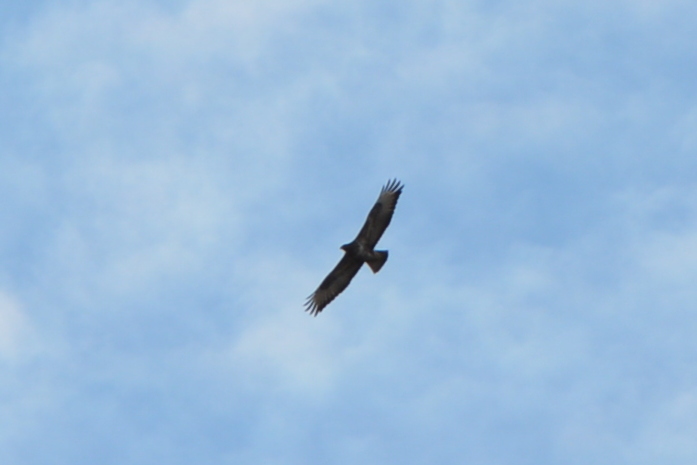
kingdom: Animalia
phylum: Chordata
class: Aves
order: Accipitriformes
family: Accipitridae
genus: Buteo
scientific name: Buteo buteo
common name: Common buzzard
